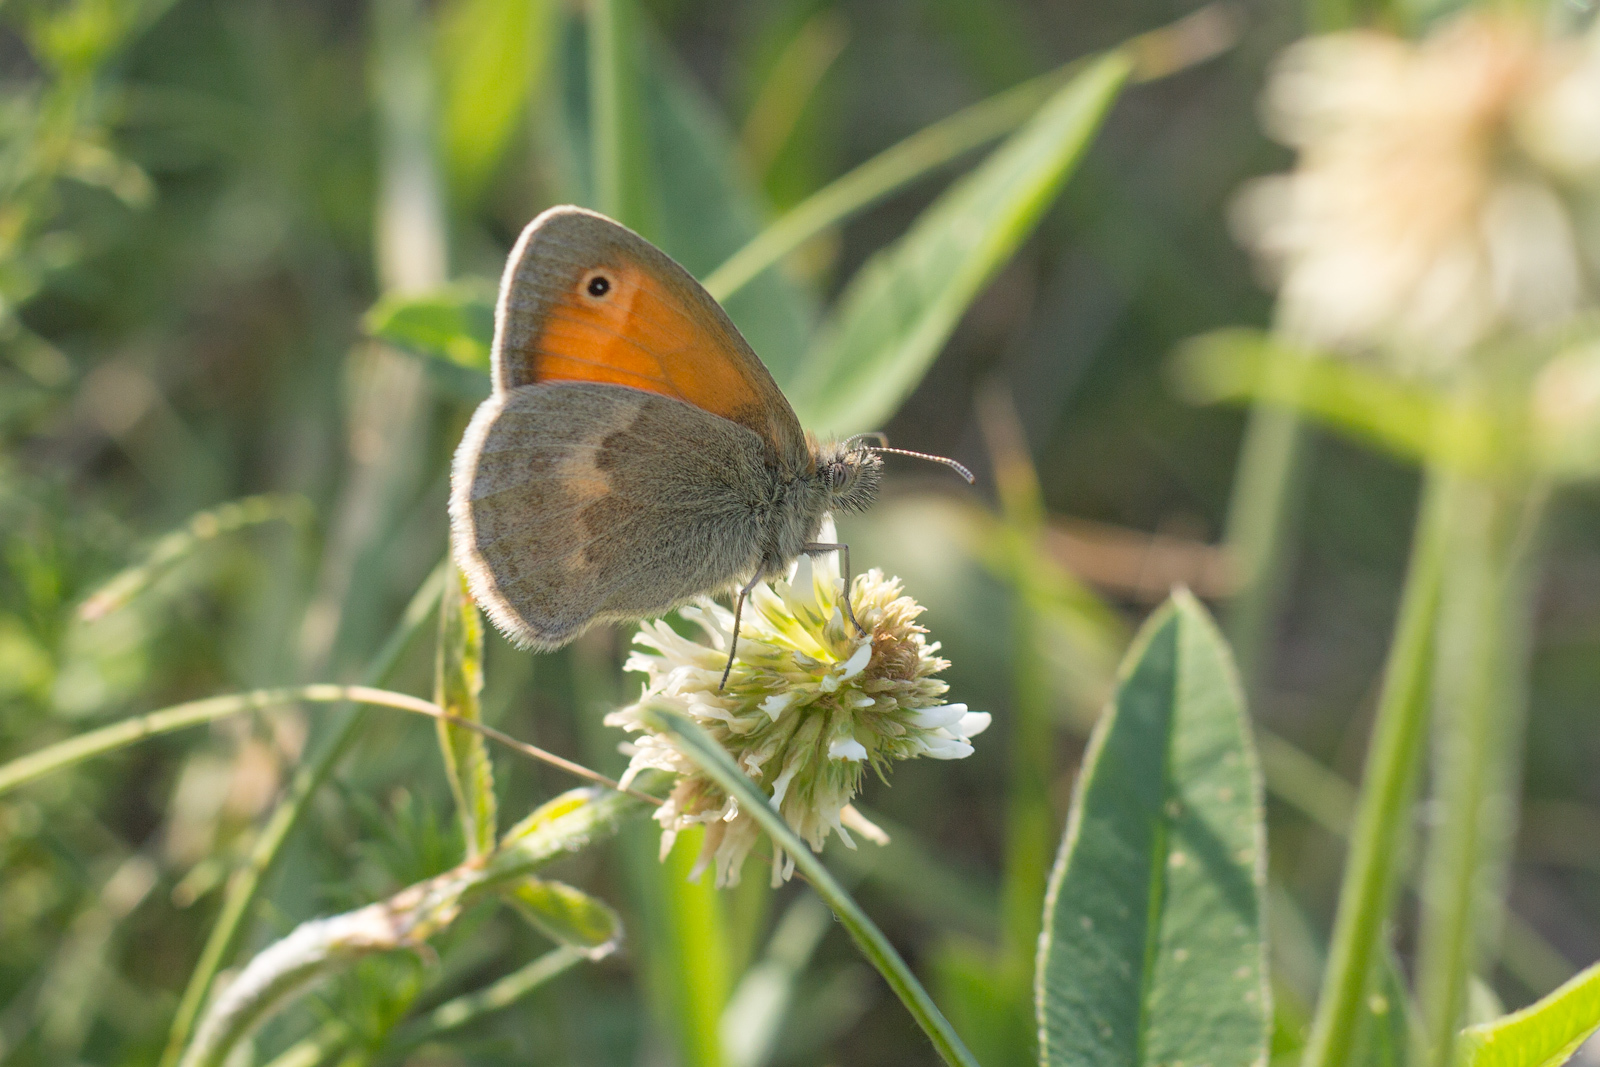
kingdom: Animalia
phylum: Arthropoda
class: Insecta
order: Lepidoptera
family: Nymphalidae
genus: Coenonympha
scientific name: Coenonympha pamphilus
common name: Small heath
